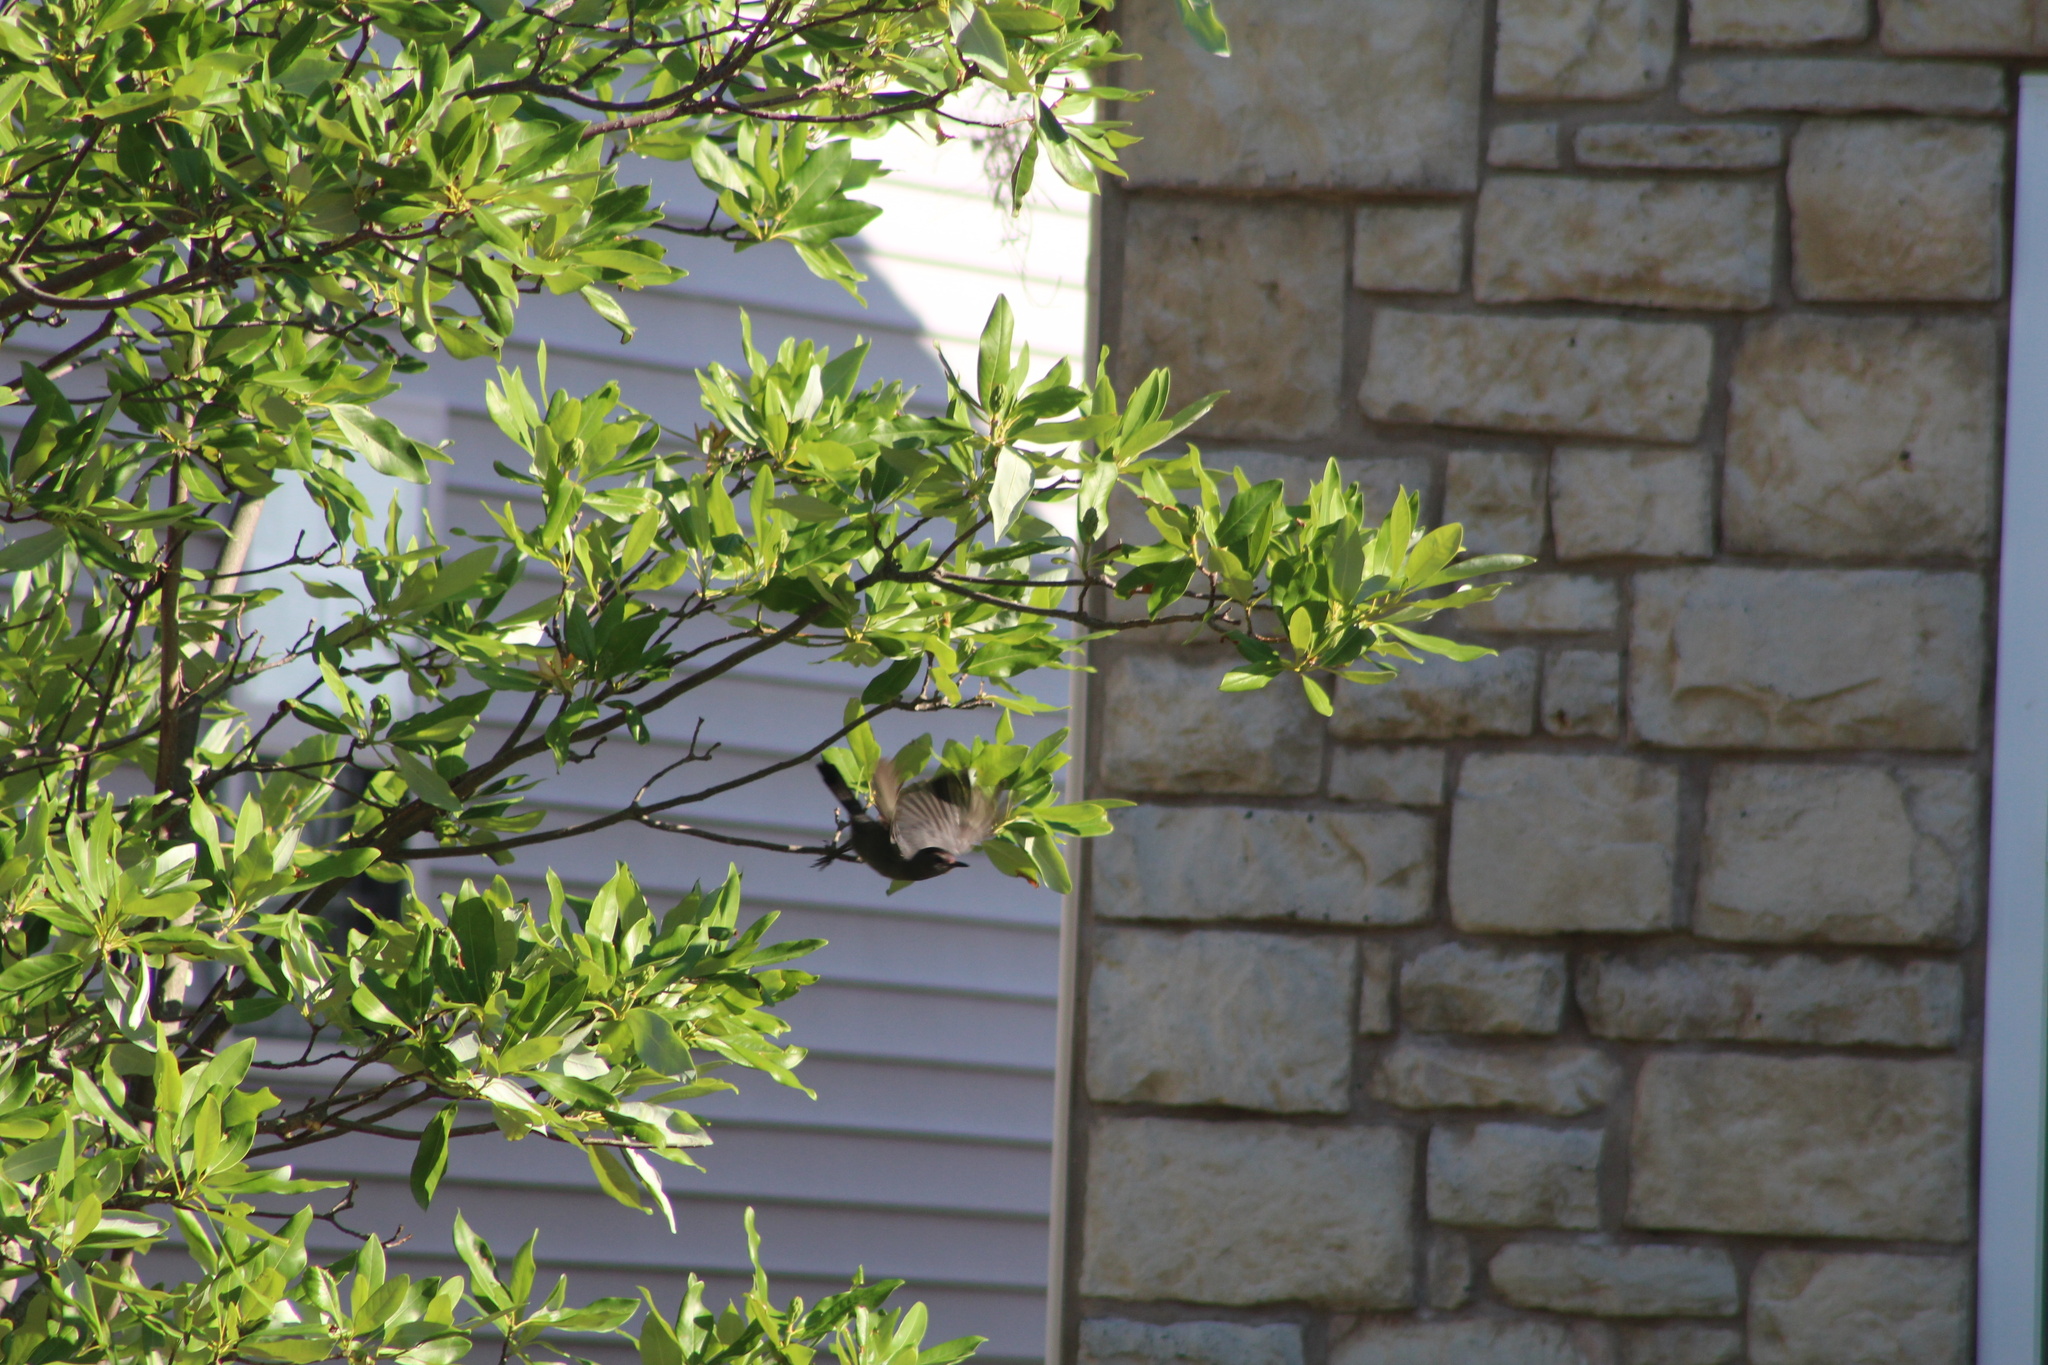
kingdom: Animalia
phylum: Chordata
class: Aves
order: Passeriformes
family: Mimidae
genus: Dumetella
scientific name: Dumetella carolinensis
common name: Gray catbird
